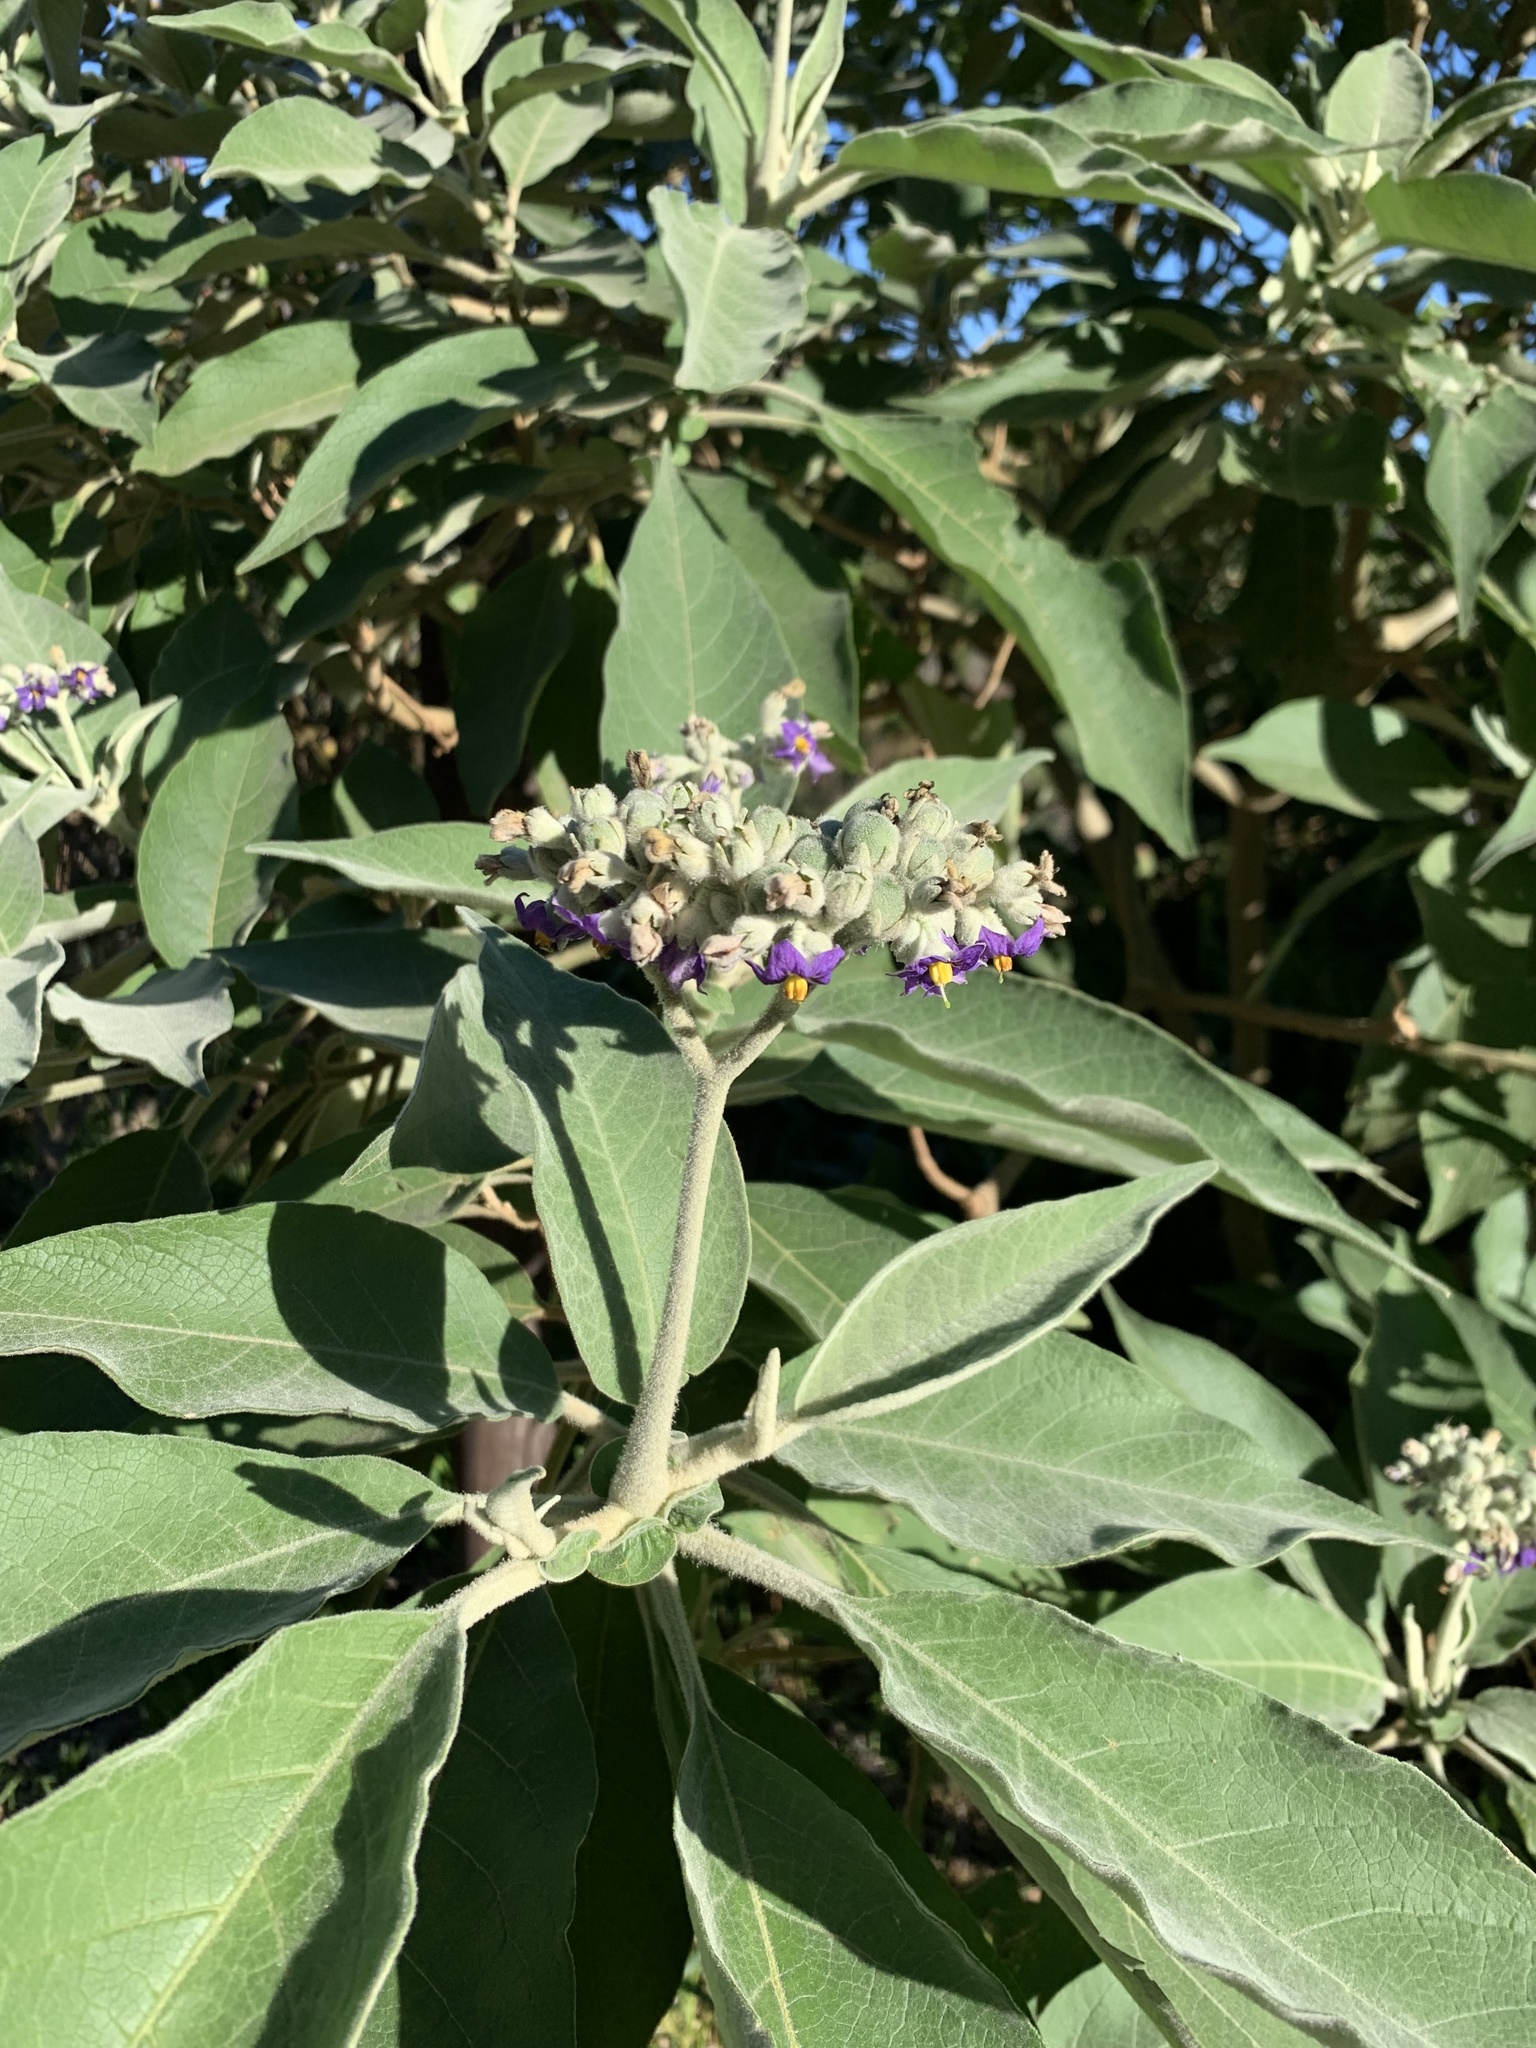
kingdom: Plantae
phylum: Tracheophyta
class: Magnoliopsida
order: Solanales
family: Solanaceae
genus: Solanum
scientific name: Solanum mauritianum
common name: Earleaf nightshade
